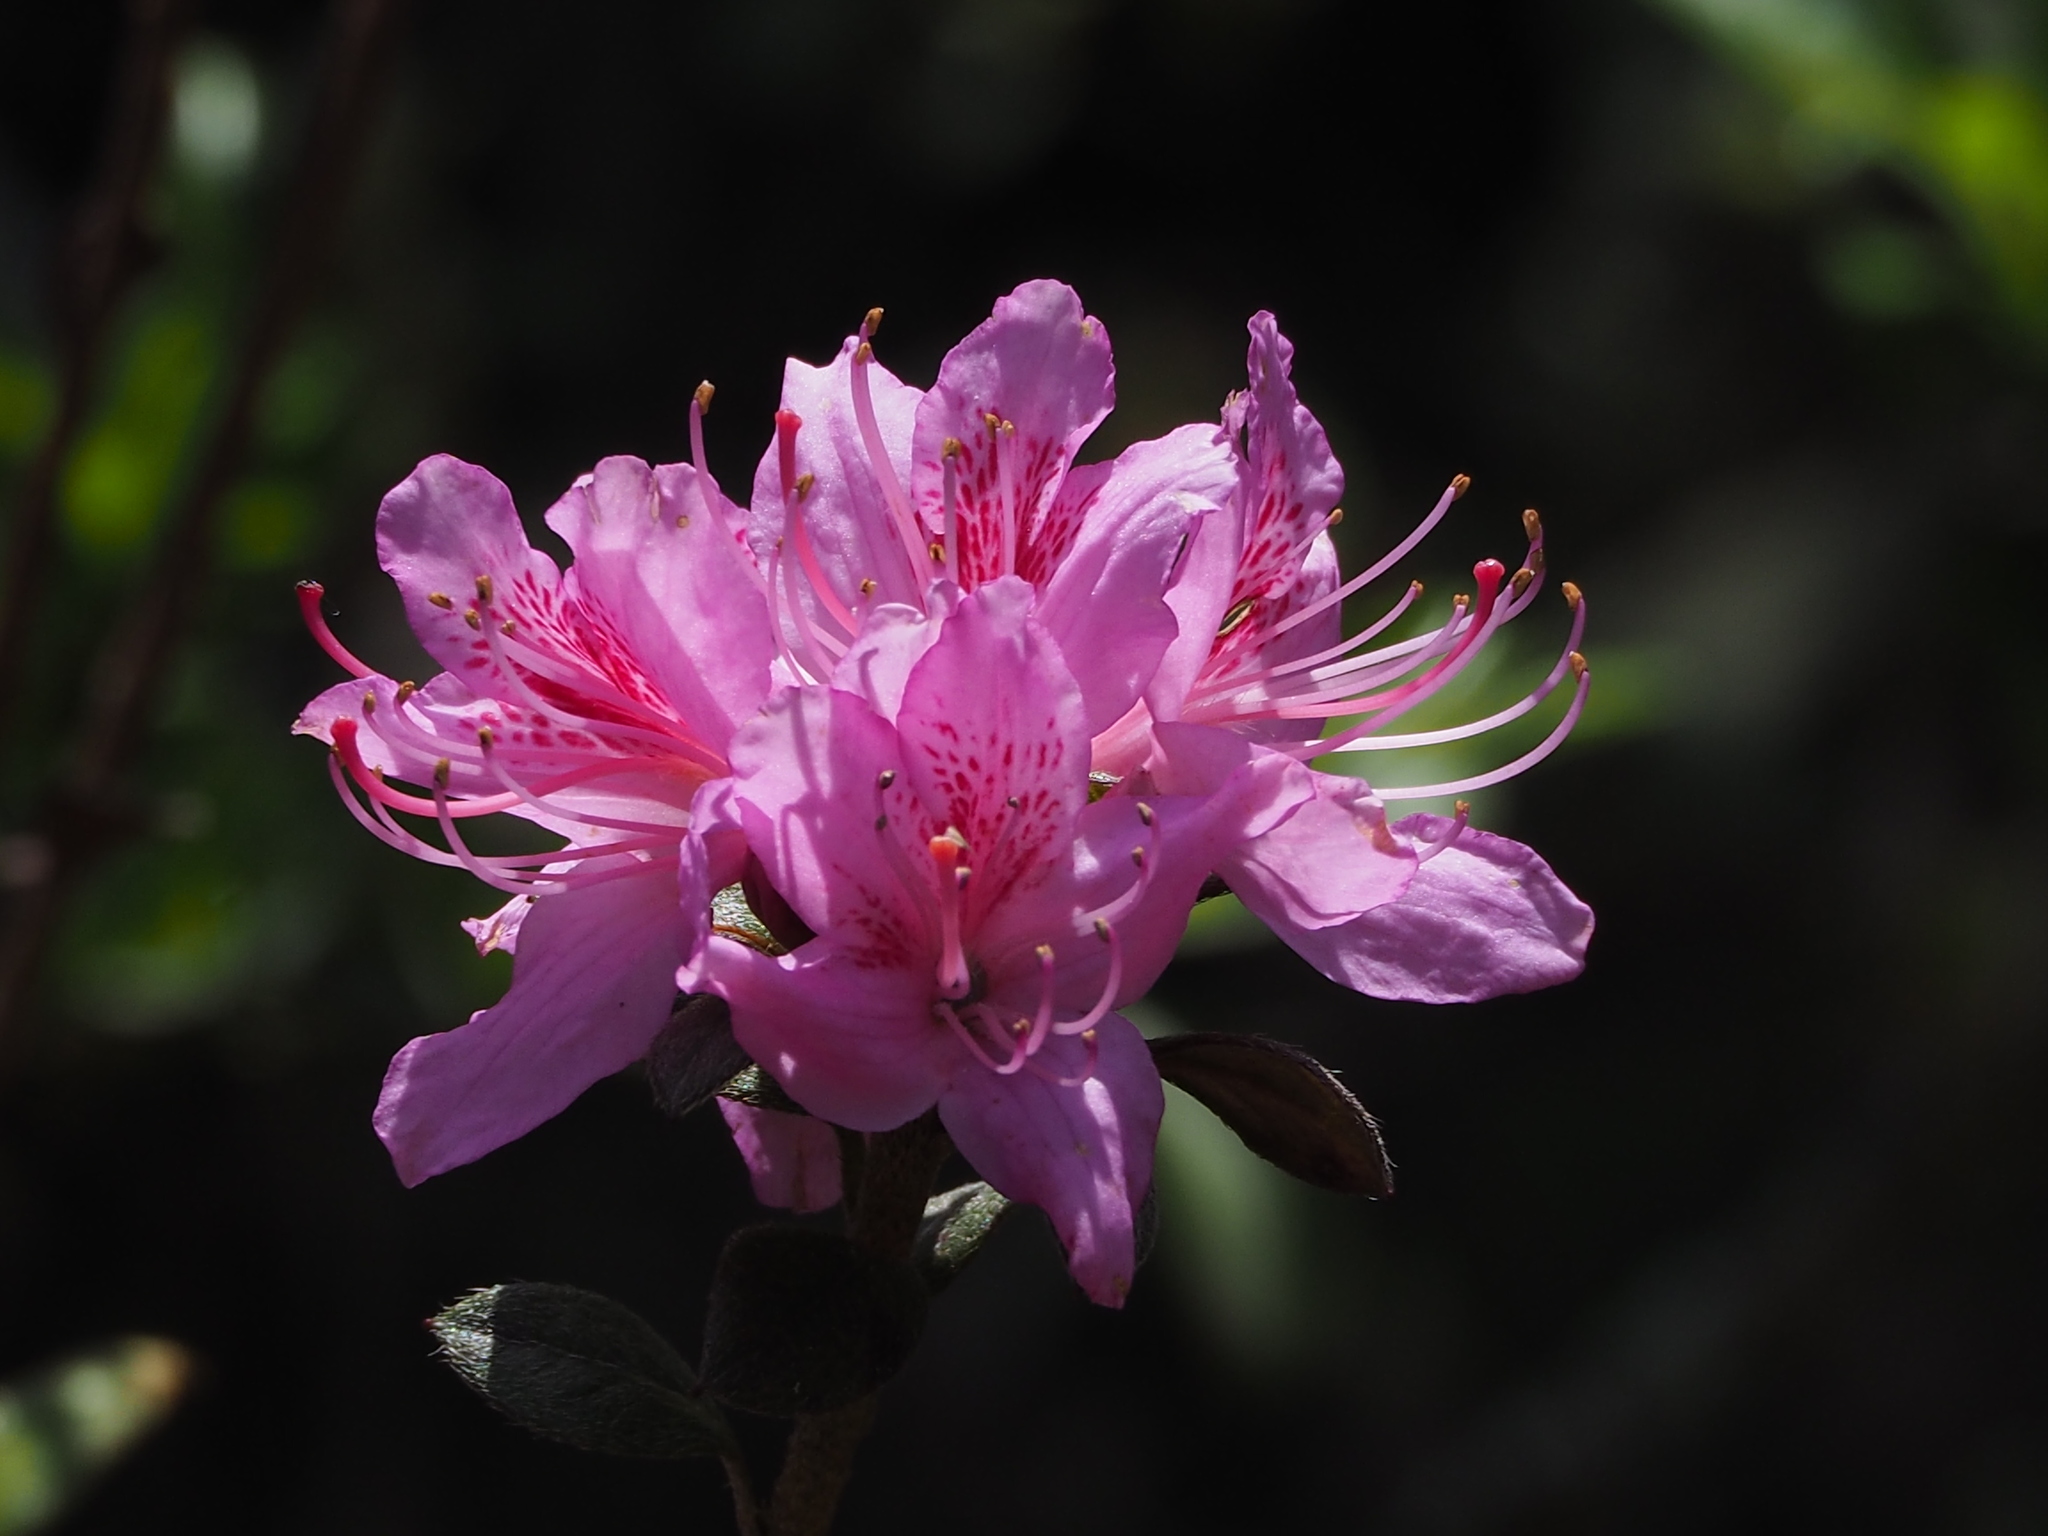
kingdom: Plantae
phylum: Tracheophyta
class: Magnoliopsida
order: Ericales
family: Ericaceae
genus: Rhododendron
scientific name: Rhododendron taiwanalpinum
